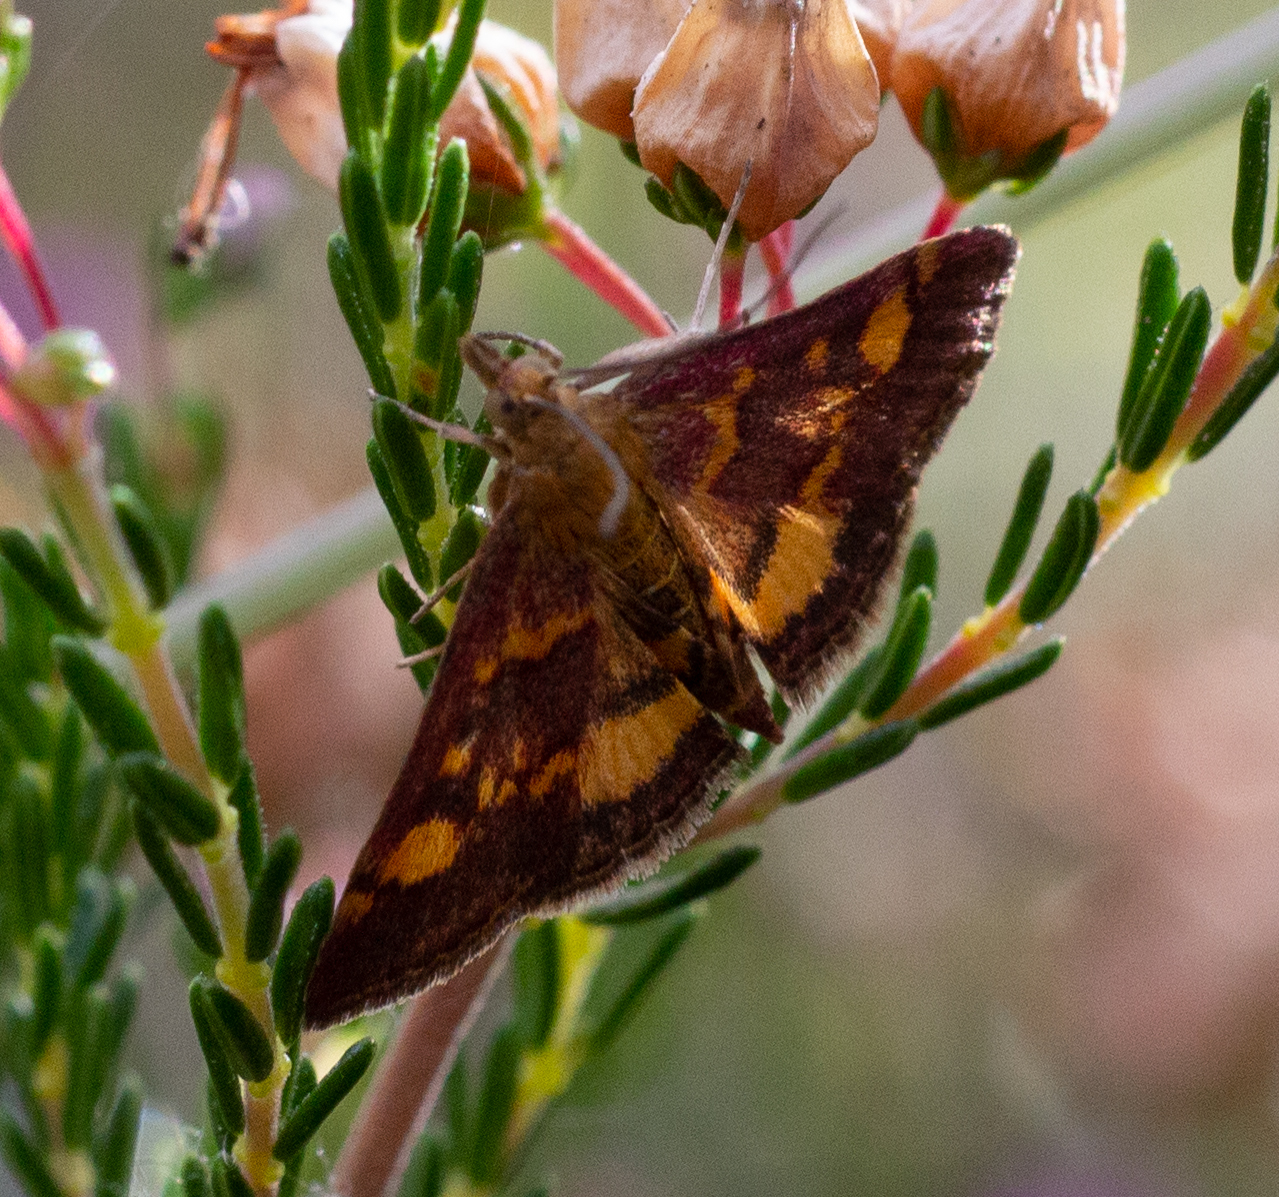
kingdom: Animalia
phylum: Arthropoda
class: Insecta
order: Lepidoptera
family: Crambidae
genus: Pyrausta
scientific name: Pyrausta aurata
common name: Small purple & gold
